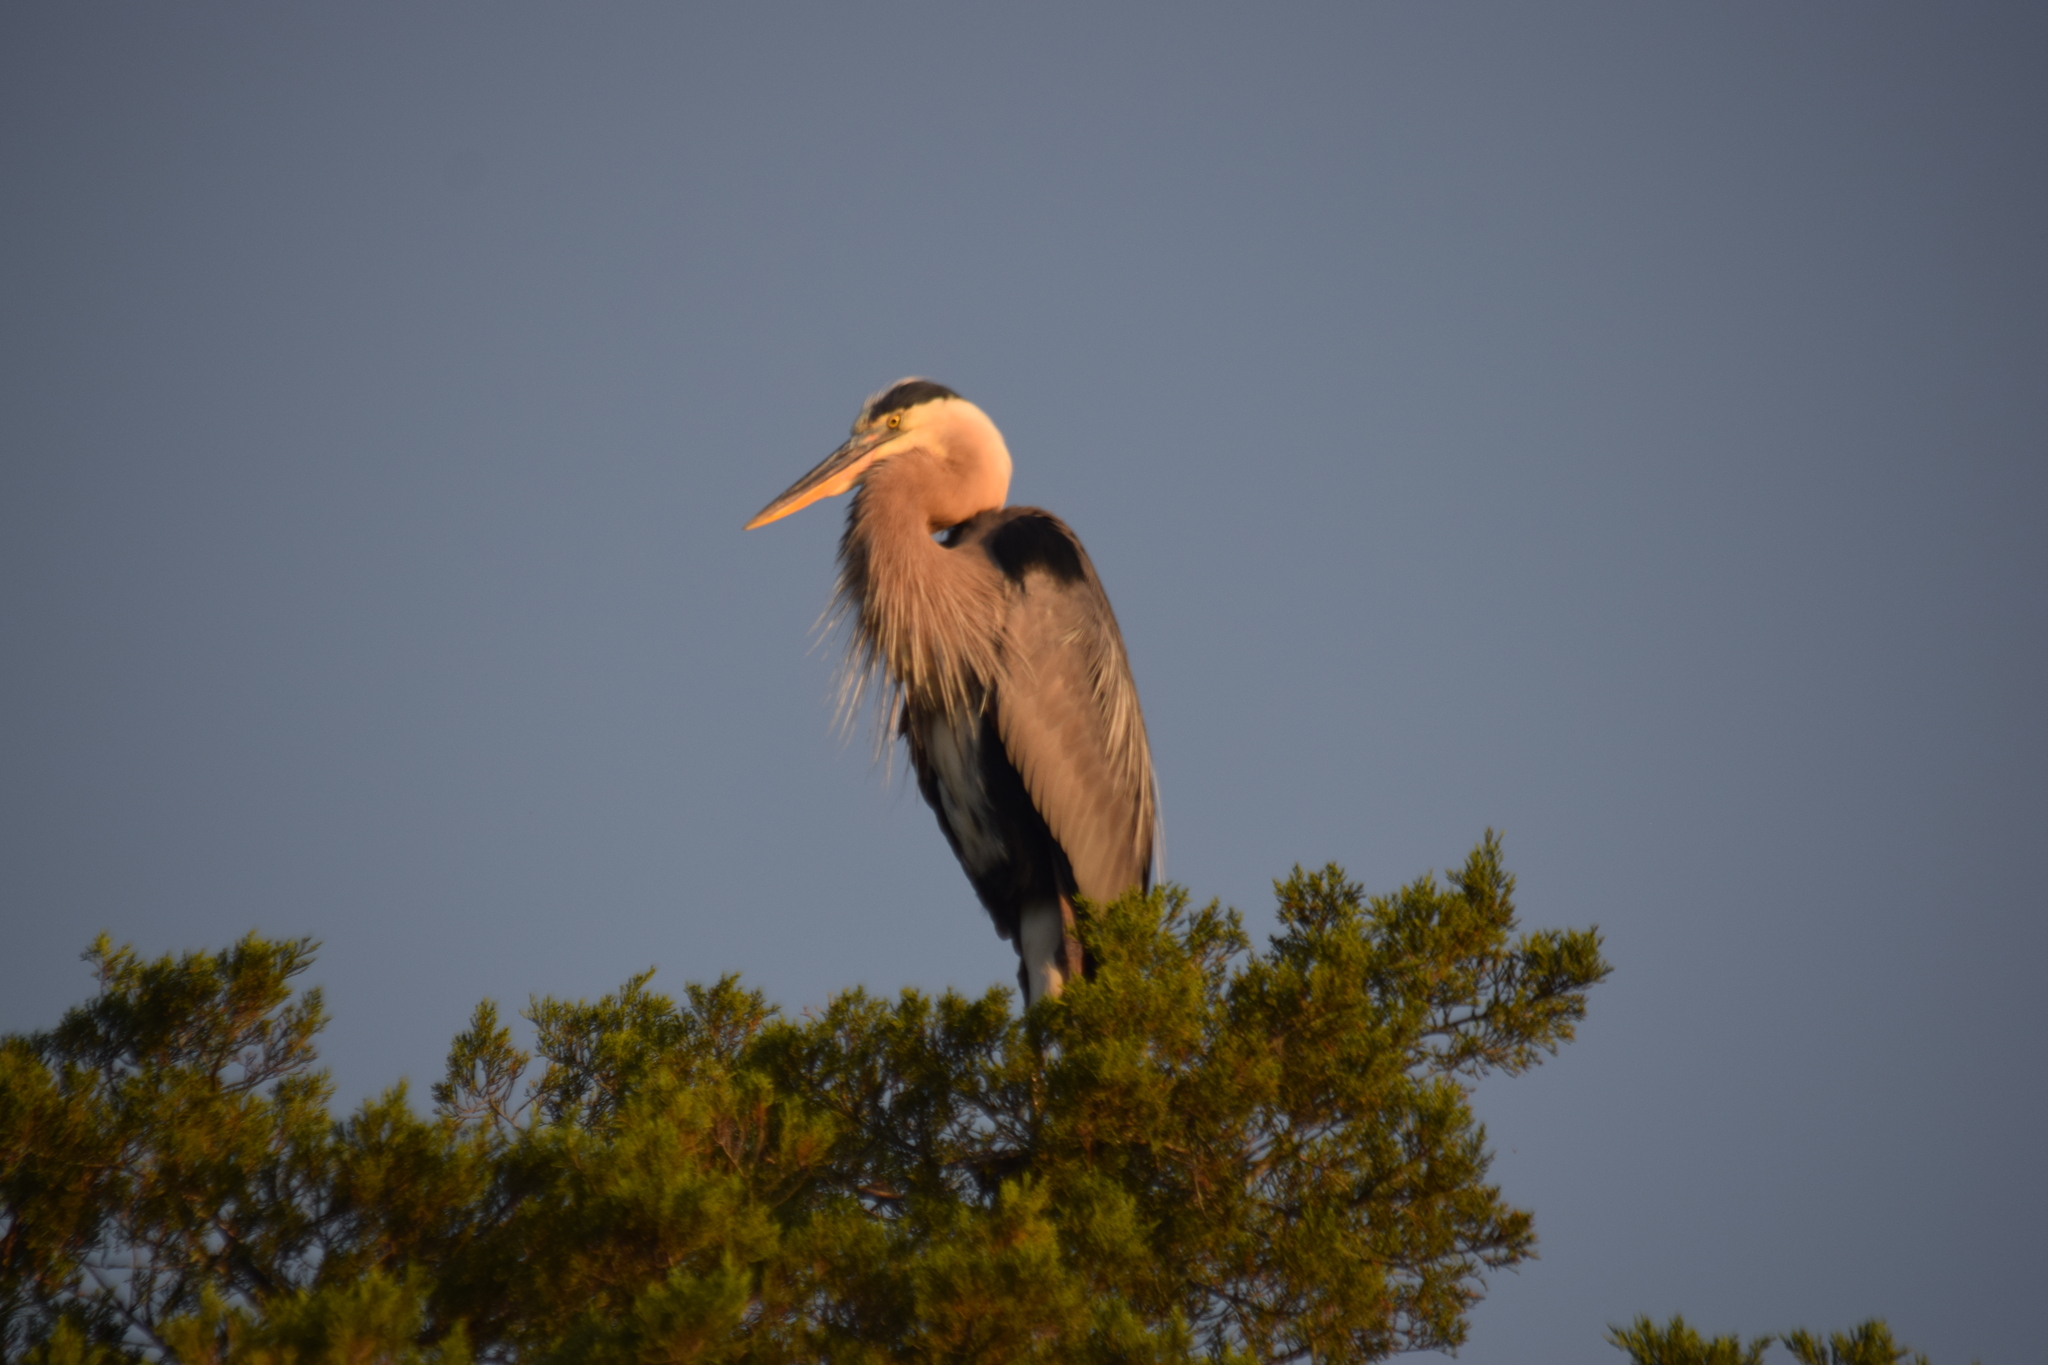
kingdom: Animalia
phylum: Chordata
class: Aves
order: Pelecaniformes
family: Ardeidae
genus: Ardea
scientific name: Ardea herodias
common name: Great blue heron
